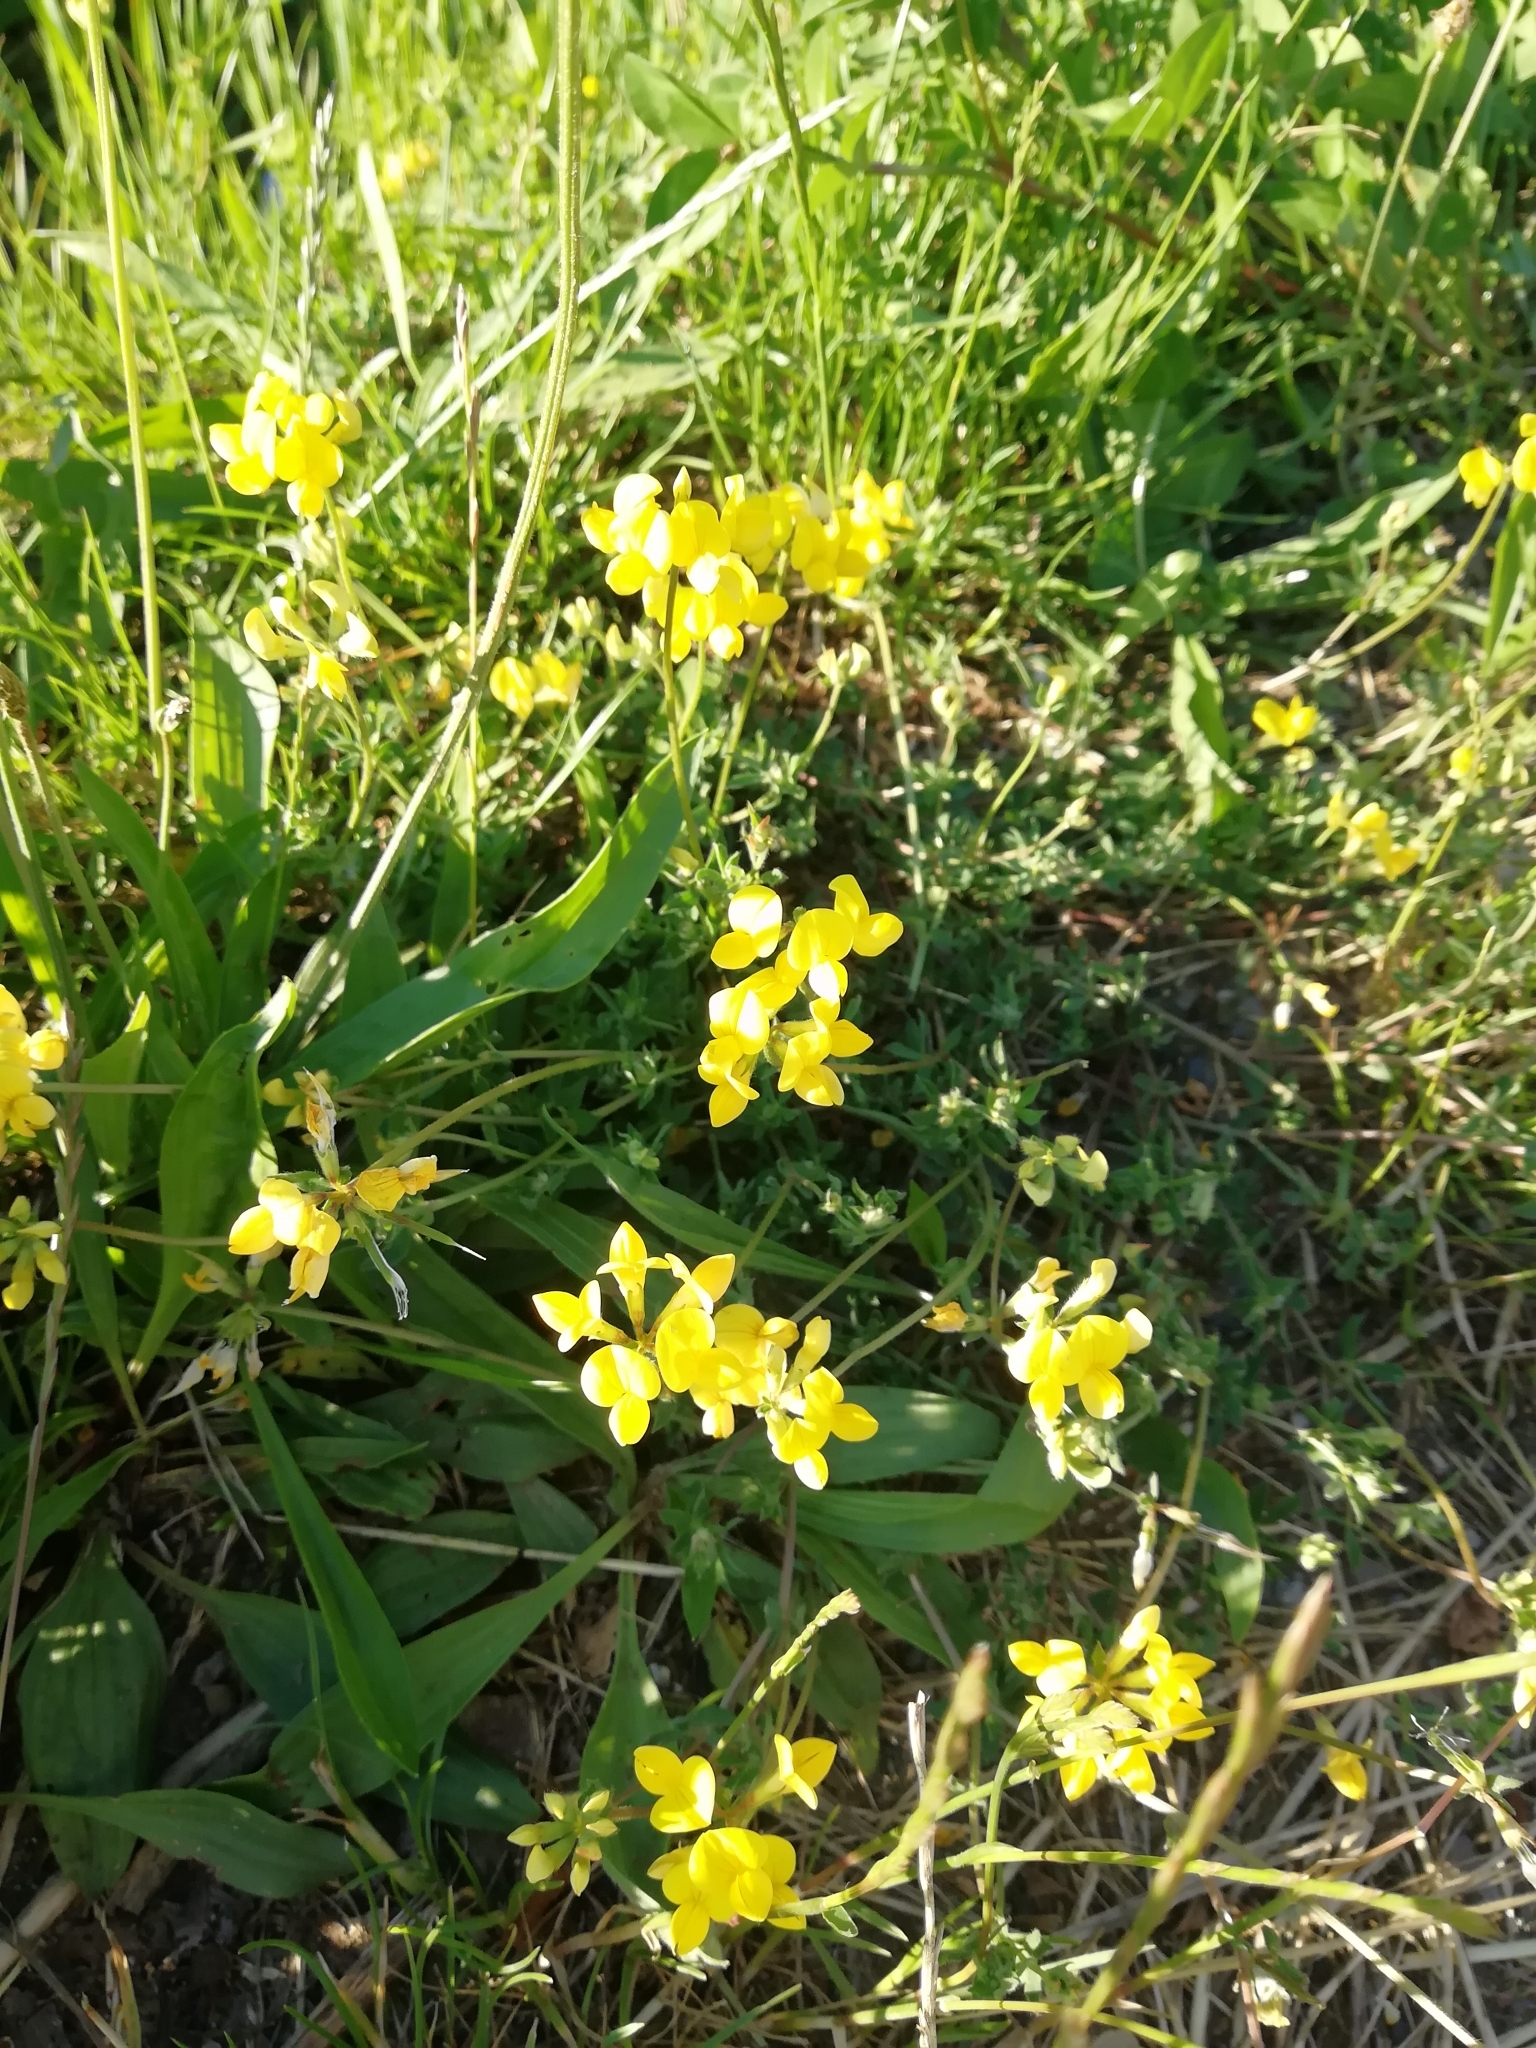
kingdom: Plantae
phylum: Tracheophyta
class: Magnoliopsida
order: Fabales
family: Fabaceae
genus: Lotus
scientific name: Lotus corniculatus
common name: Common bird's-foot-trefoil
